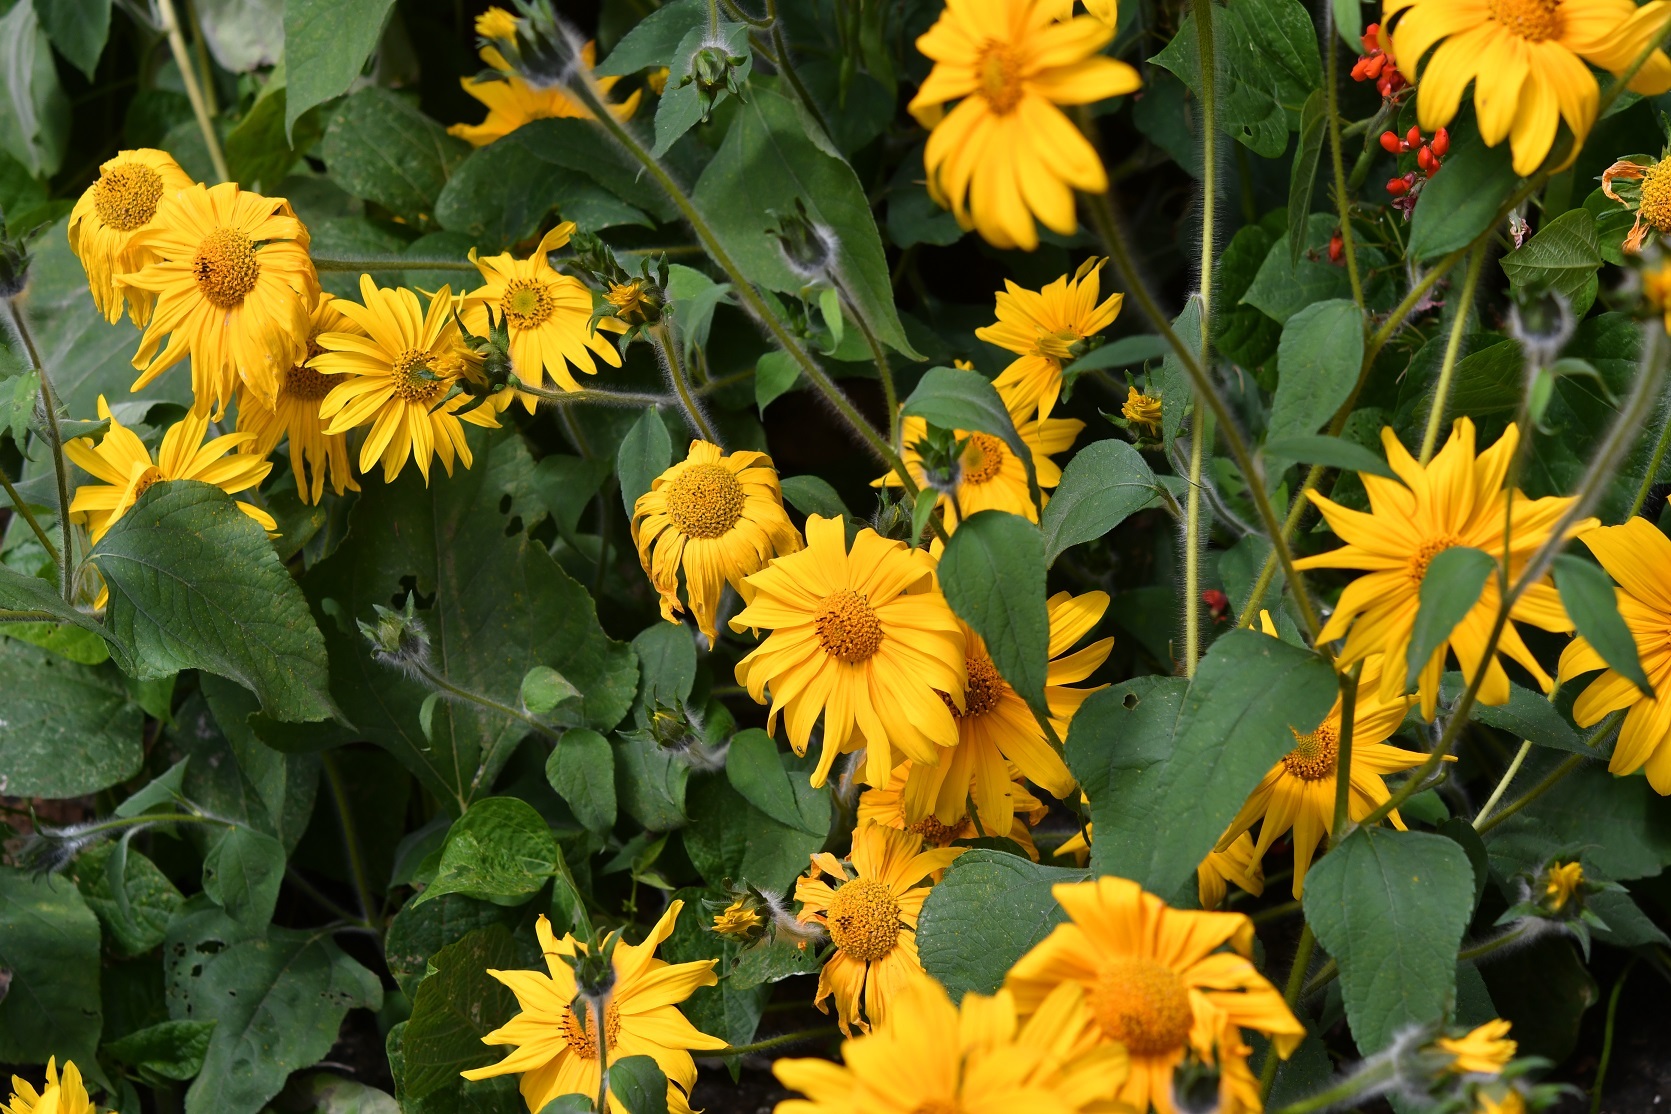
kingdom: Plantae
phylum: Tracheophyta
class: Magnoliopsida
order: Asterales
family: Asteraceae
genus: Tithonia
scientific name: Tithonia tubaeformis
